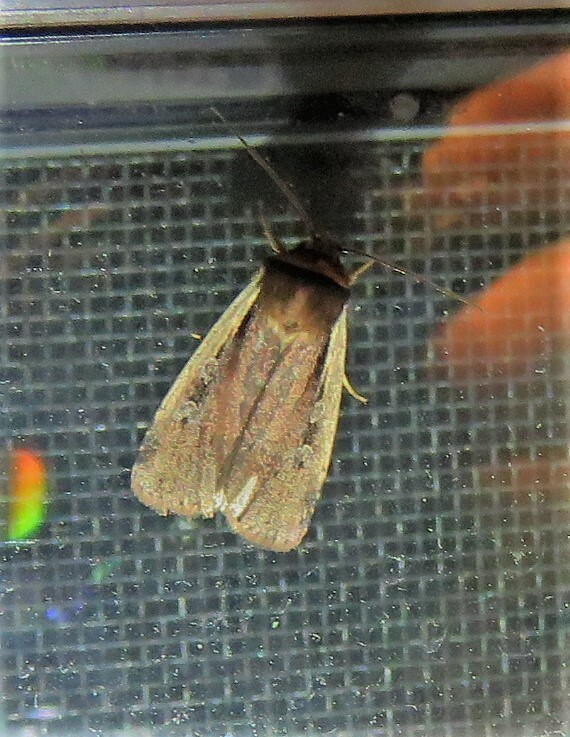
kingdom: Animalia
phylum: Arthropoda
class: Insecta
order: Lepidoptera
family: Noctuidae
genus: Ochropleura
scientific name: Ochropleura implecta
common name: Flame-shouldered dart
